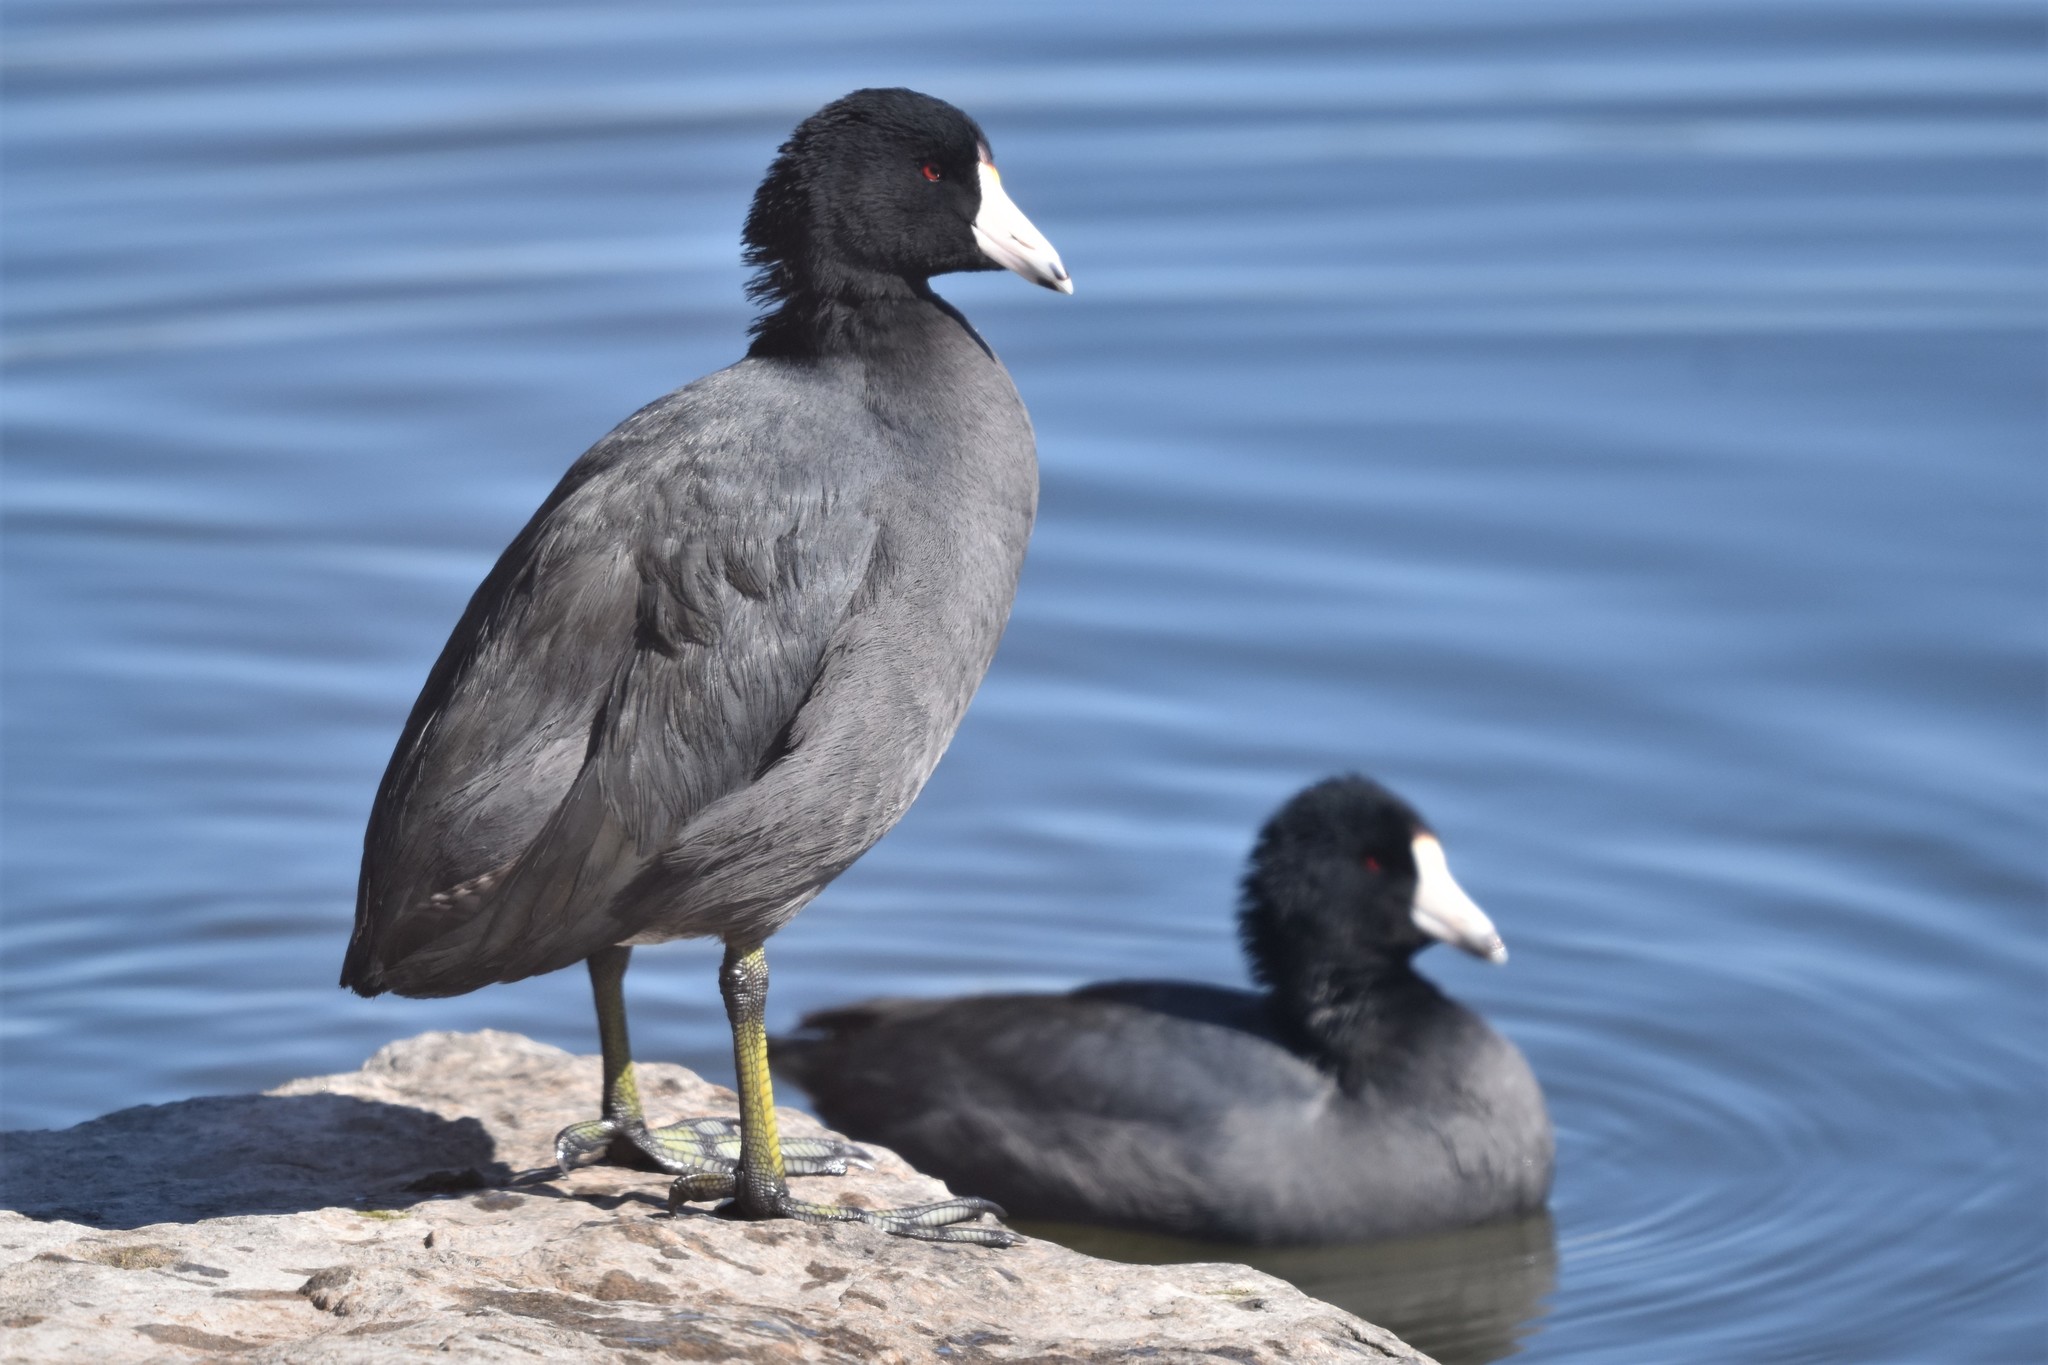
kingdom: Animalia
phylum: Chordata
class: Aves
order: Gruiformes
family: Rallidae
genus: Fulica
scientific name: Fulica americana
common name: American coot
